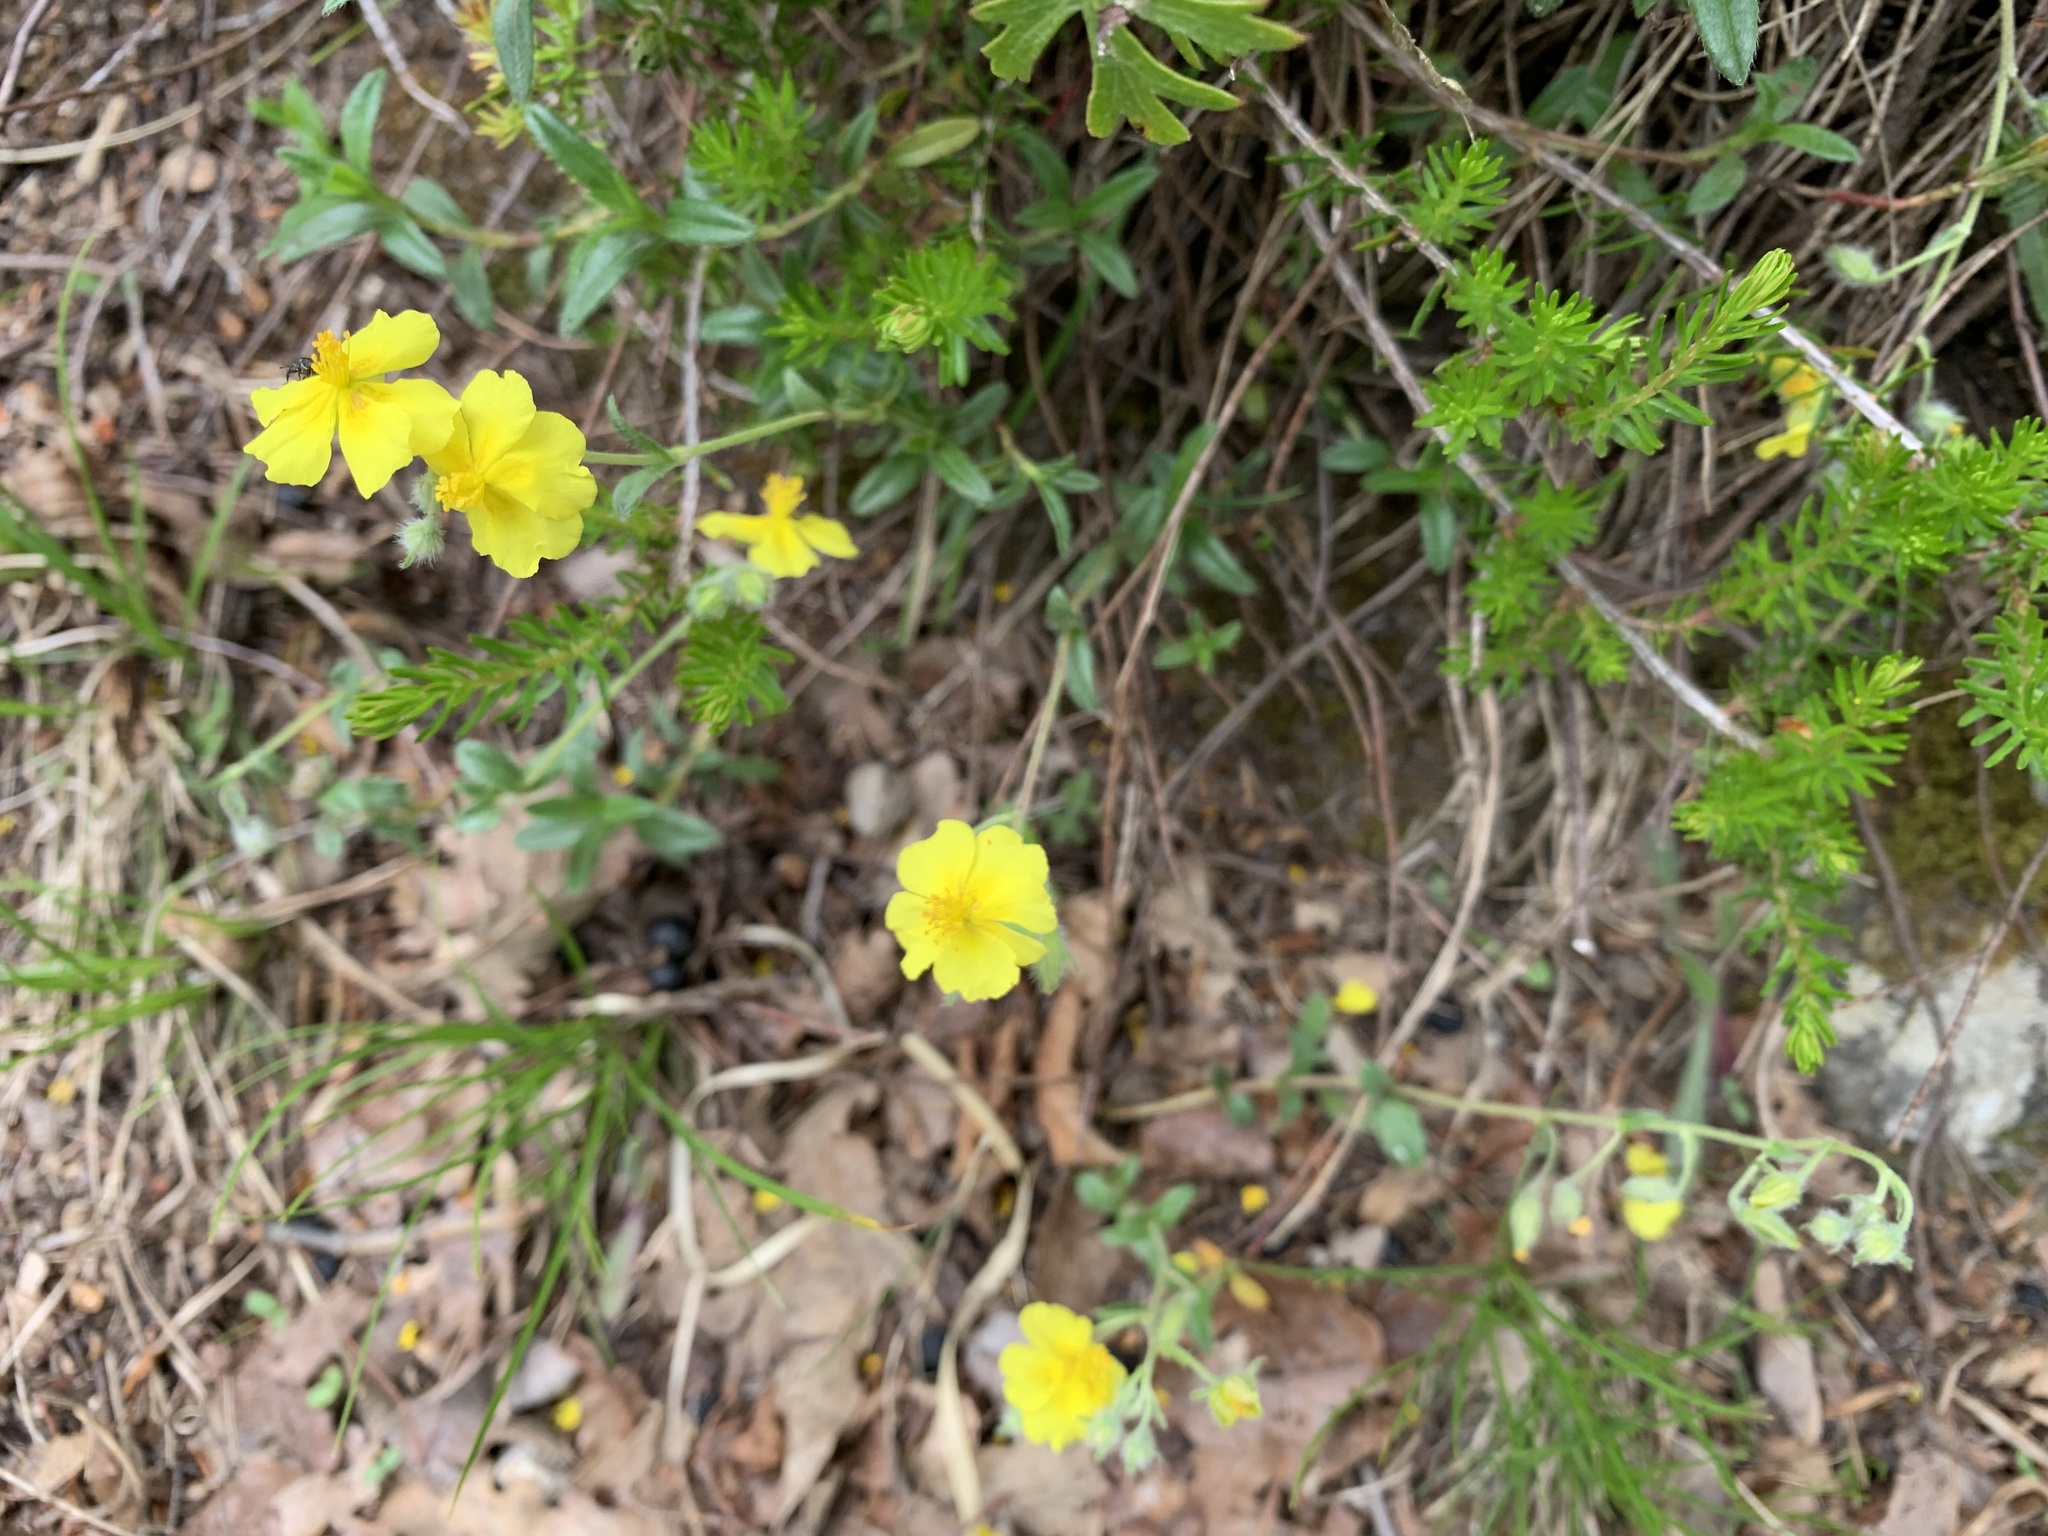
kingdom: Plantae
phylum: Tracheophyta
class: Magnoliopsida
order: Malvales
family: Cistaceae
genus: Helianthemum
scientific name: Helianthemum nummularium
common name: Common rock-rose
